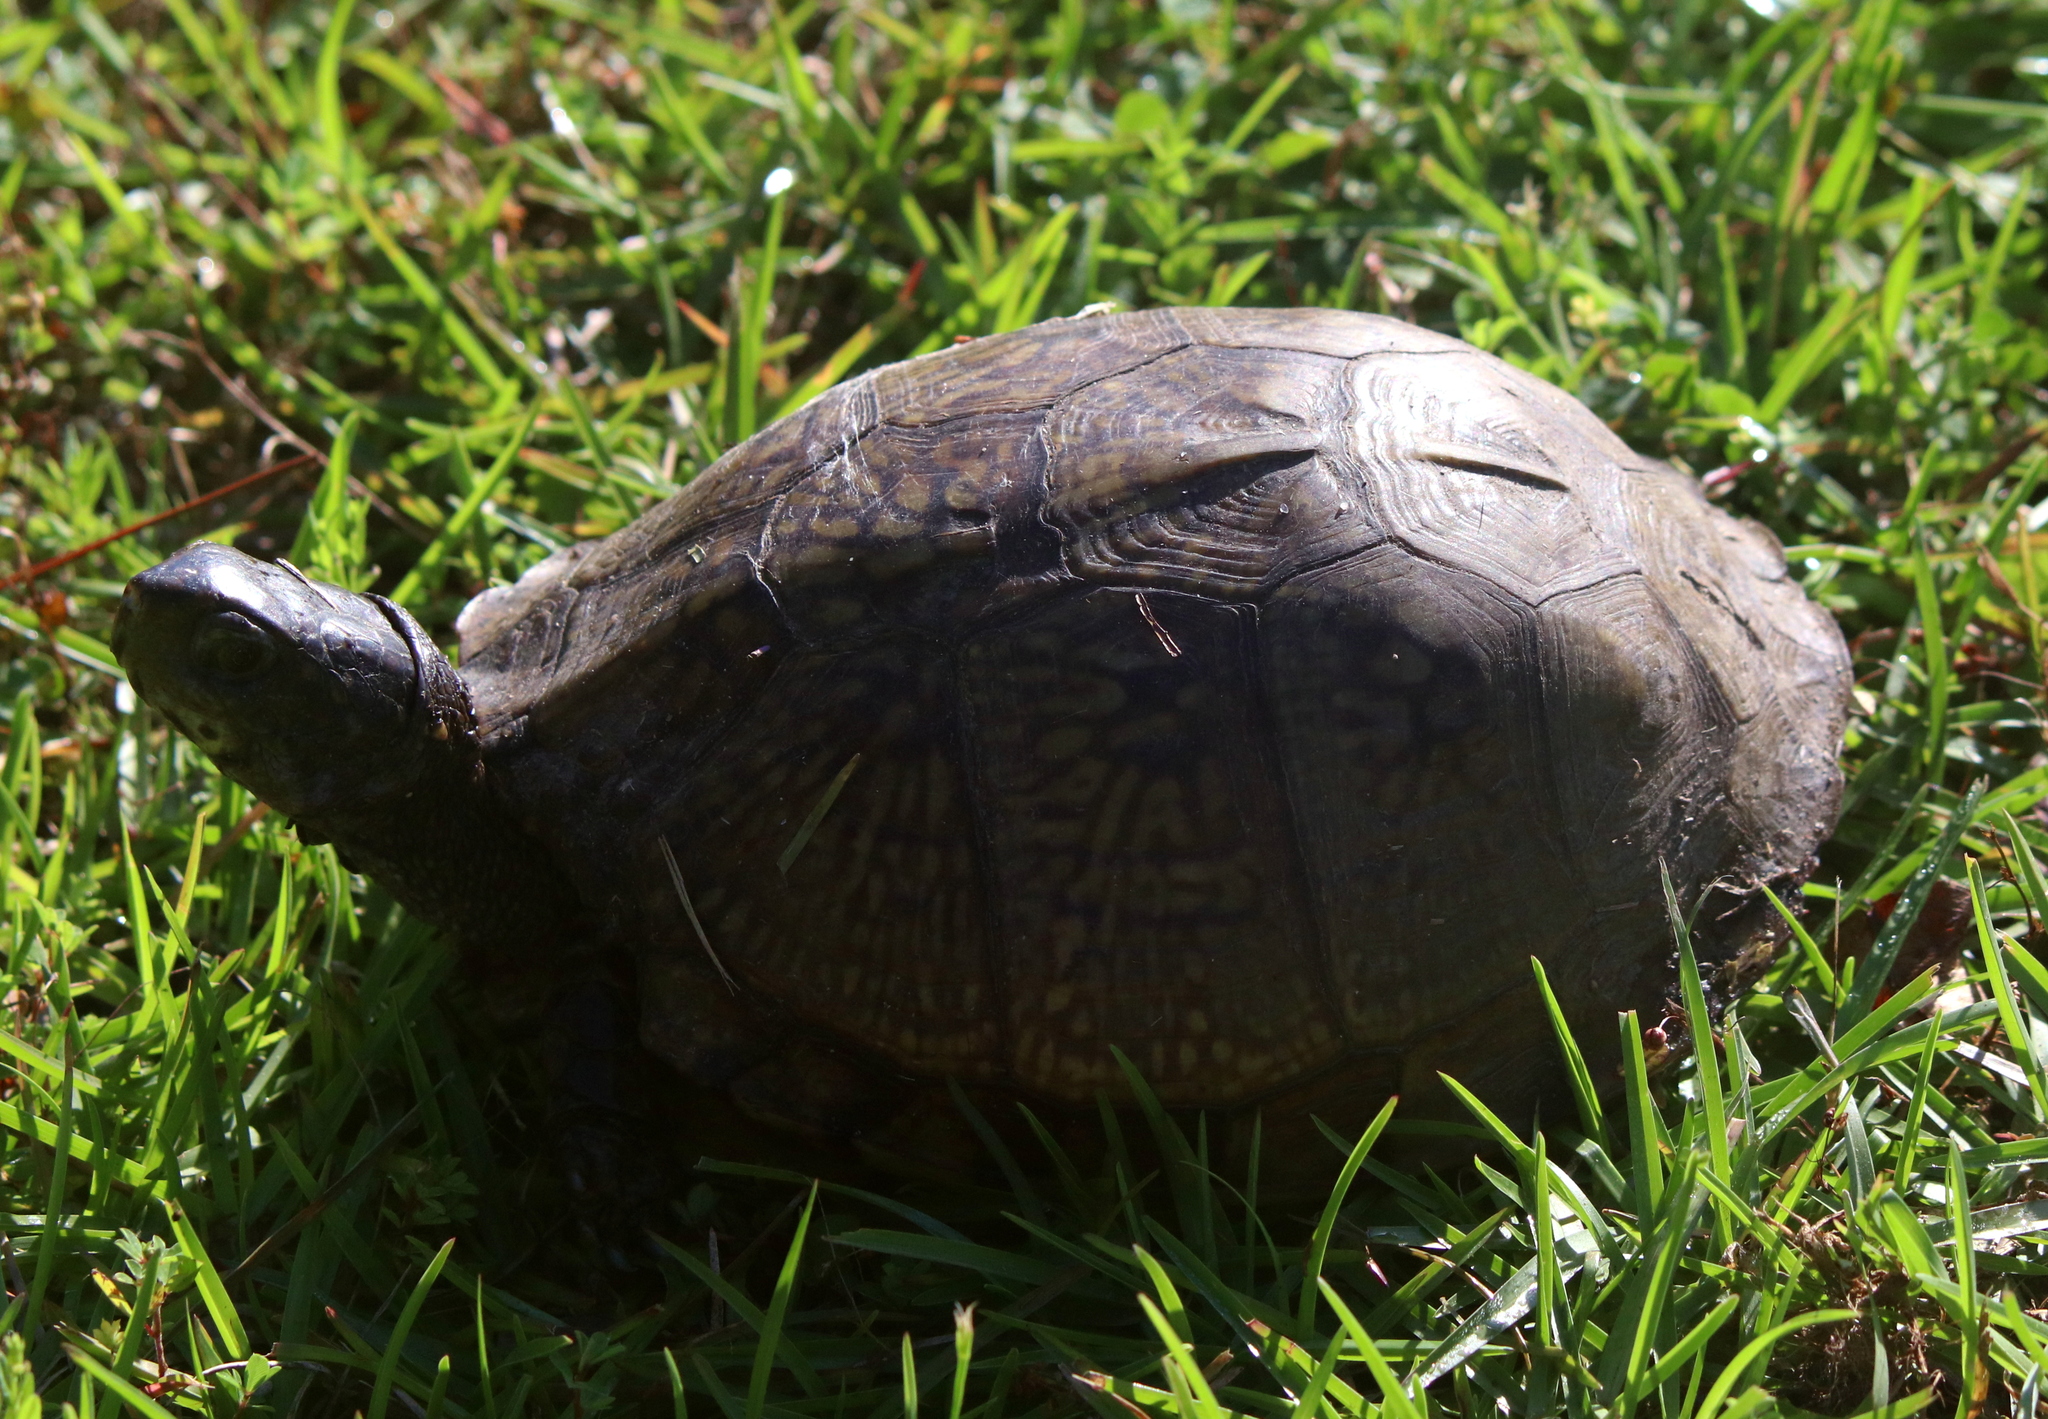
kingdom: Animalia
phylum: Chordata
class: Testudines
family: Emydidae
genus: Terrapene
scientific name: Terrapene carolina
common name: Common box turtle
